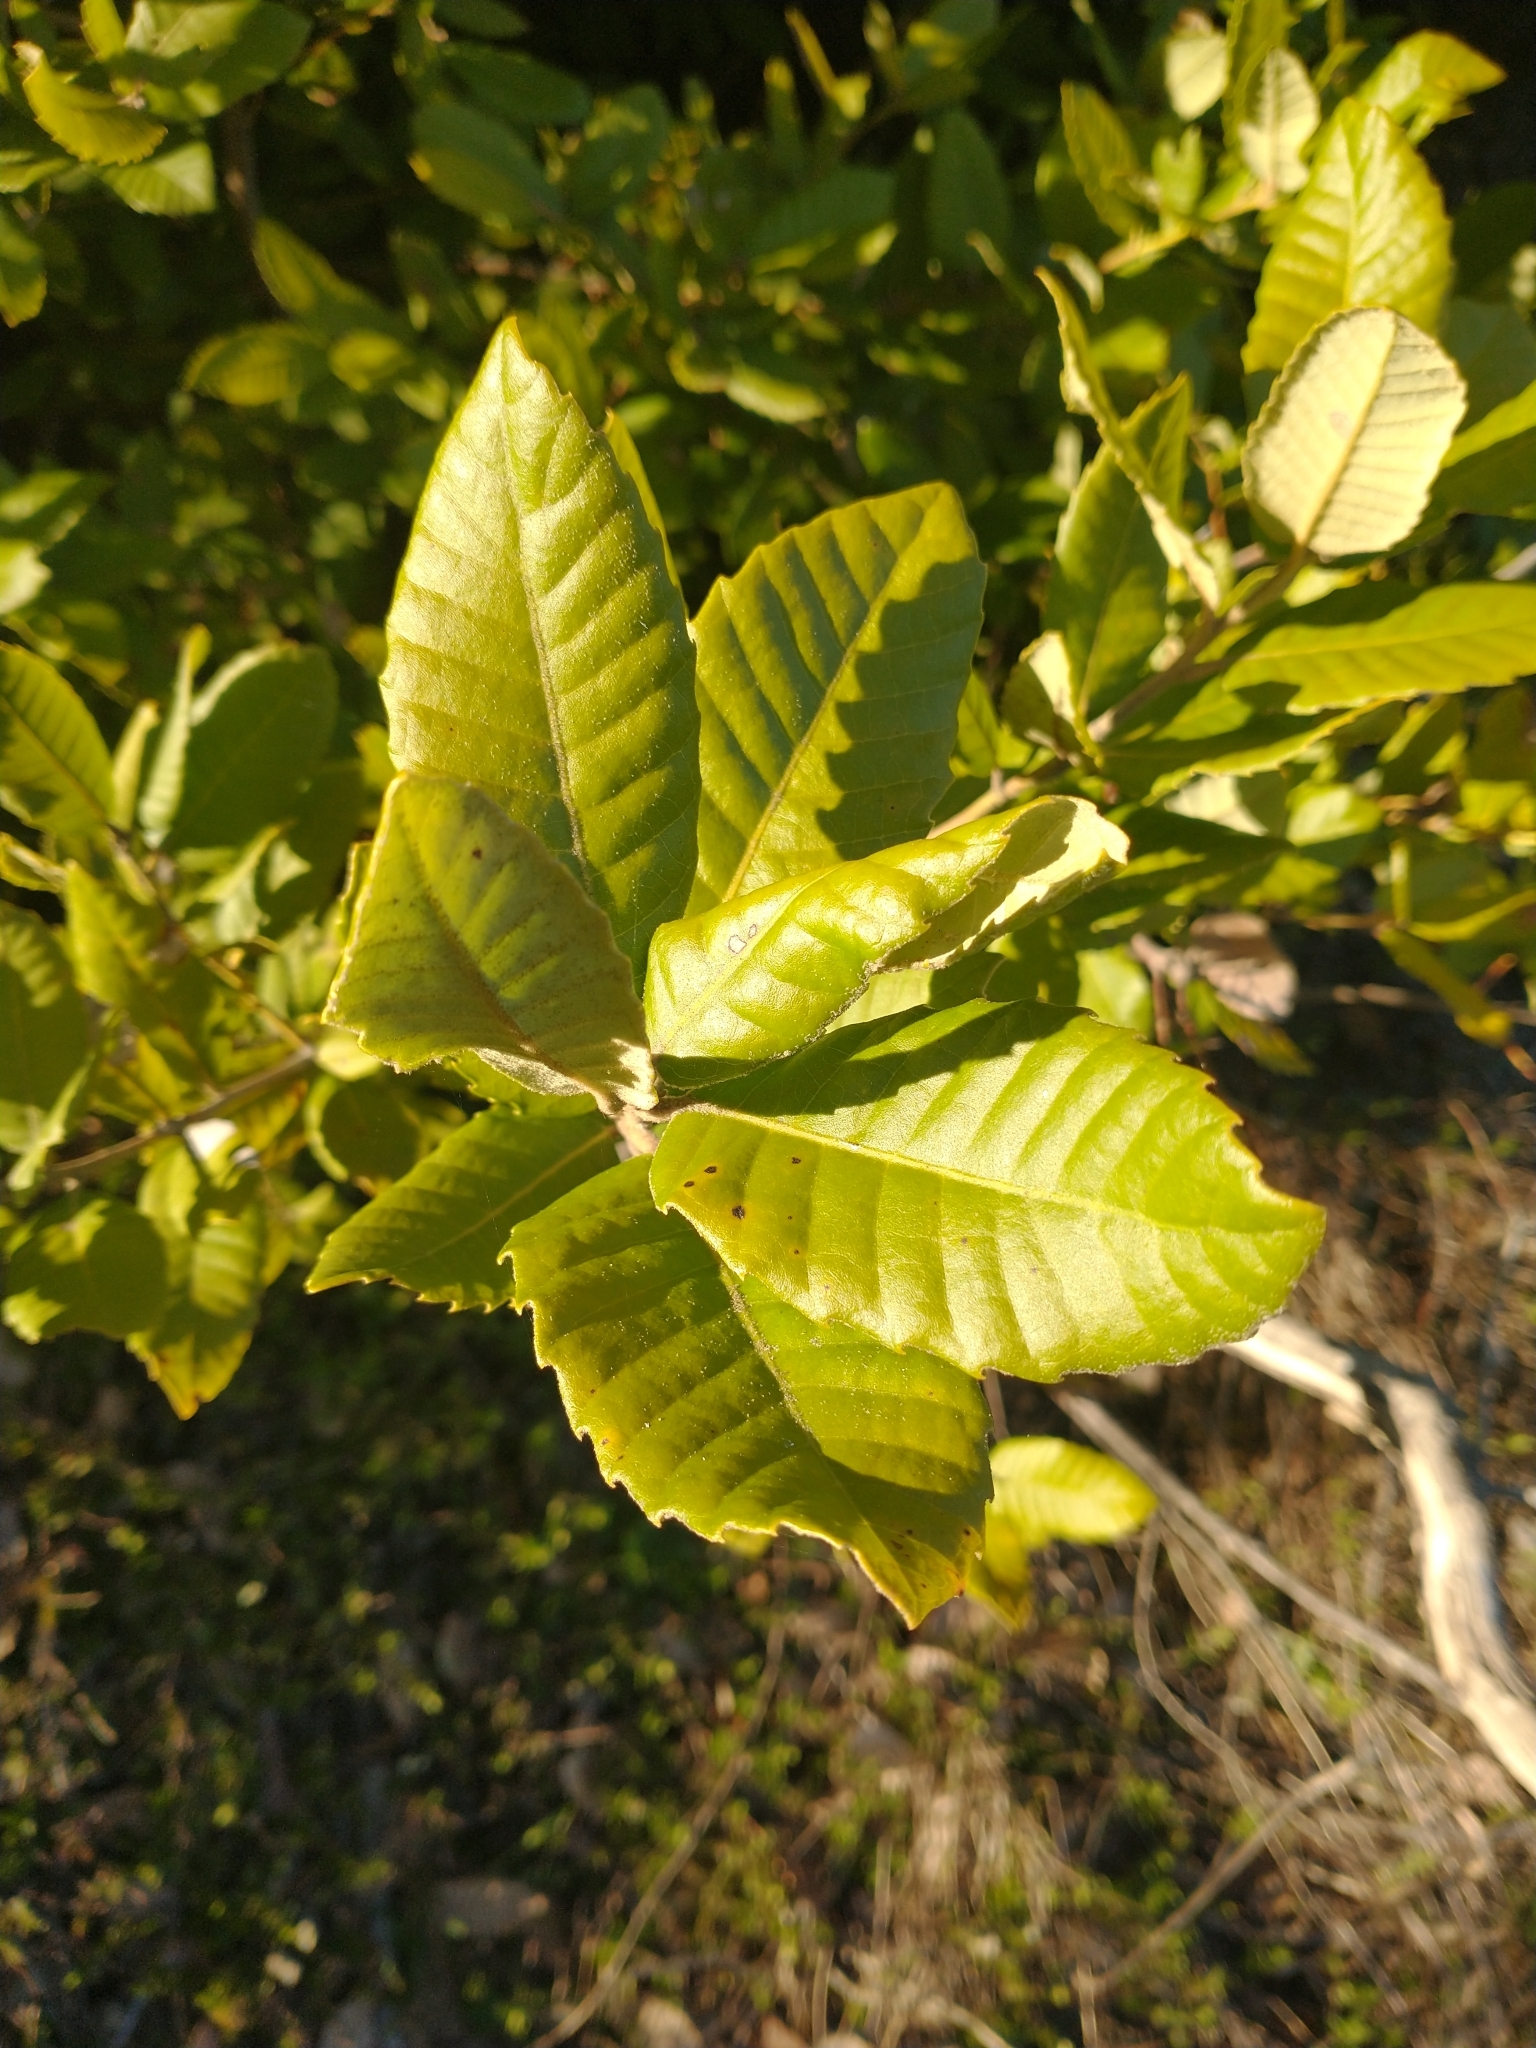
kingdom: Plantae
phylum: Tracheophyta
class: Magnoliopsida
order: Fagales
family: Fagaceae
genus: Notholithocarpus
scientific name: Notholithocarpus densiflorus
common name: Tan bark oak
